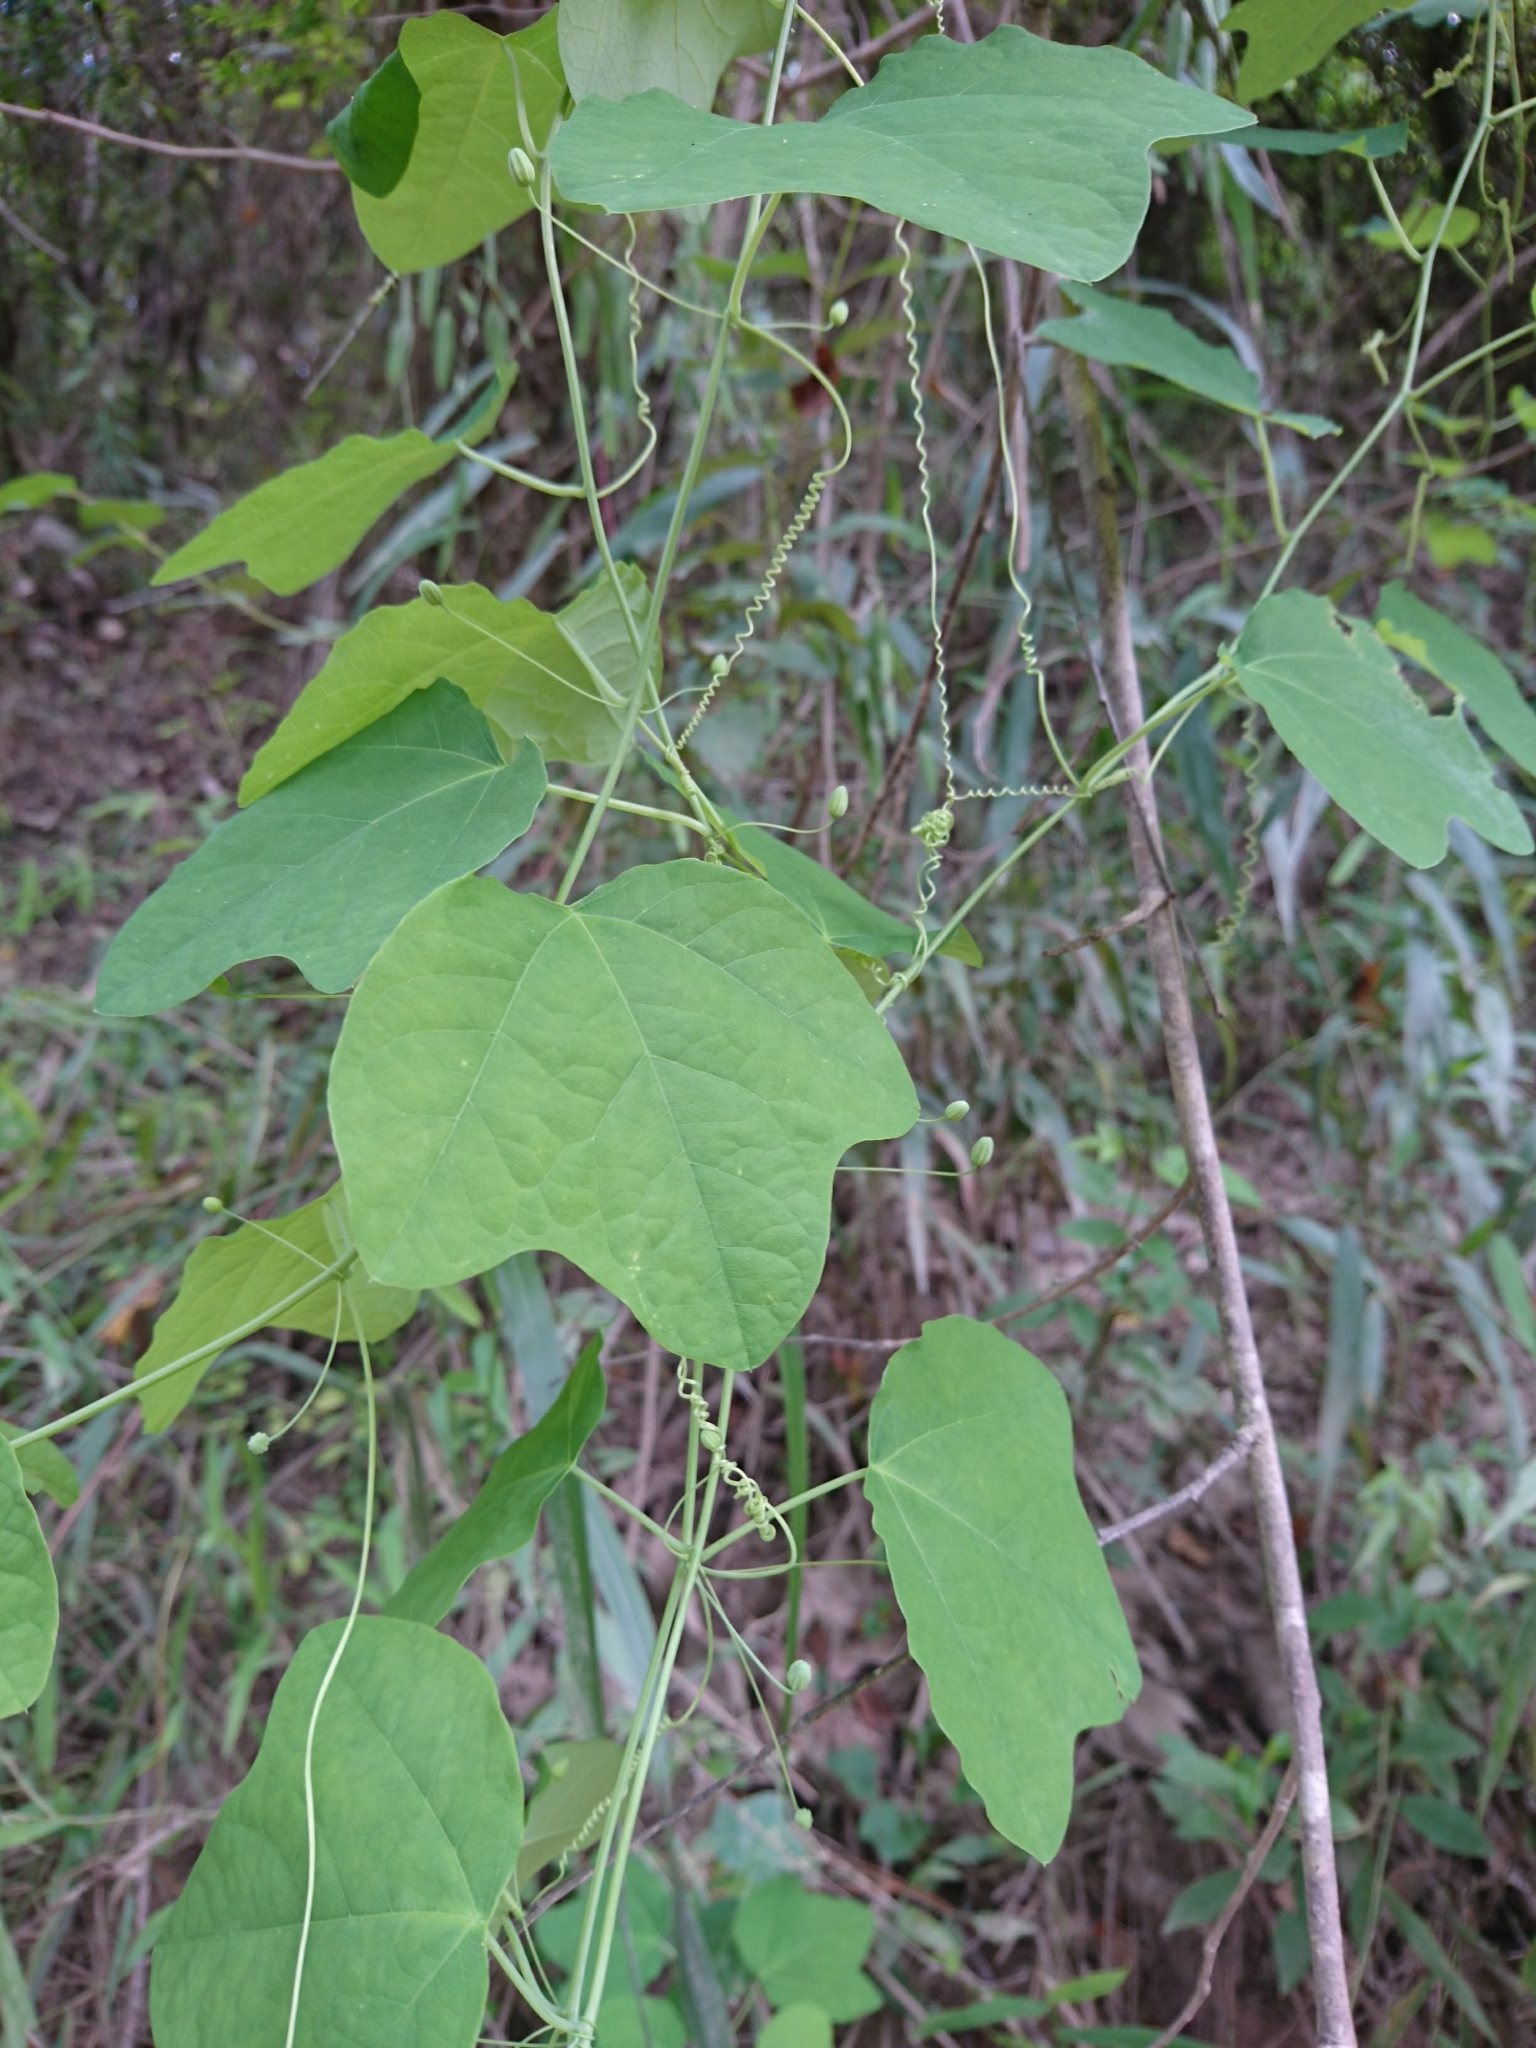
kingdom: Plantae
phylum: Tracheophyta
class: Magnoliopsida
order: Malpighiales
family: Passifloraceae
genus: Passiflora
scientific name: Passiflora lutea
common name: Yellow passionflower
